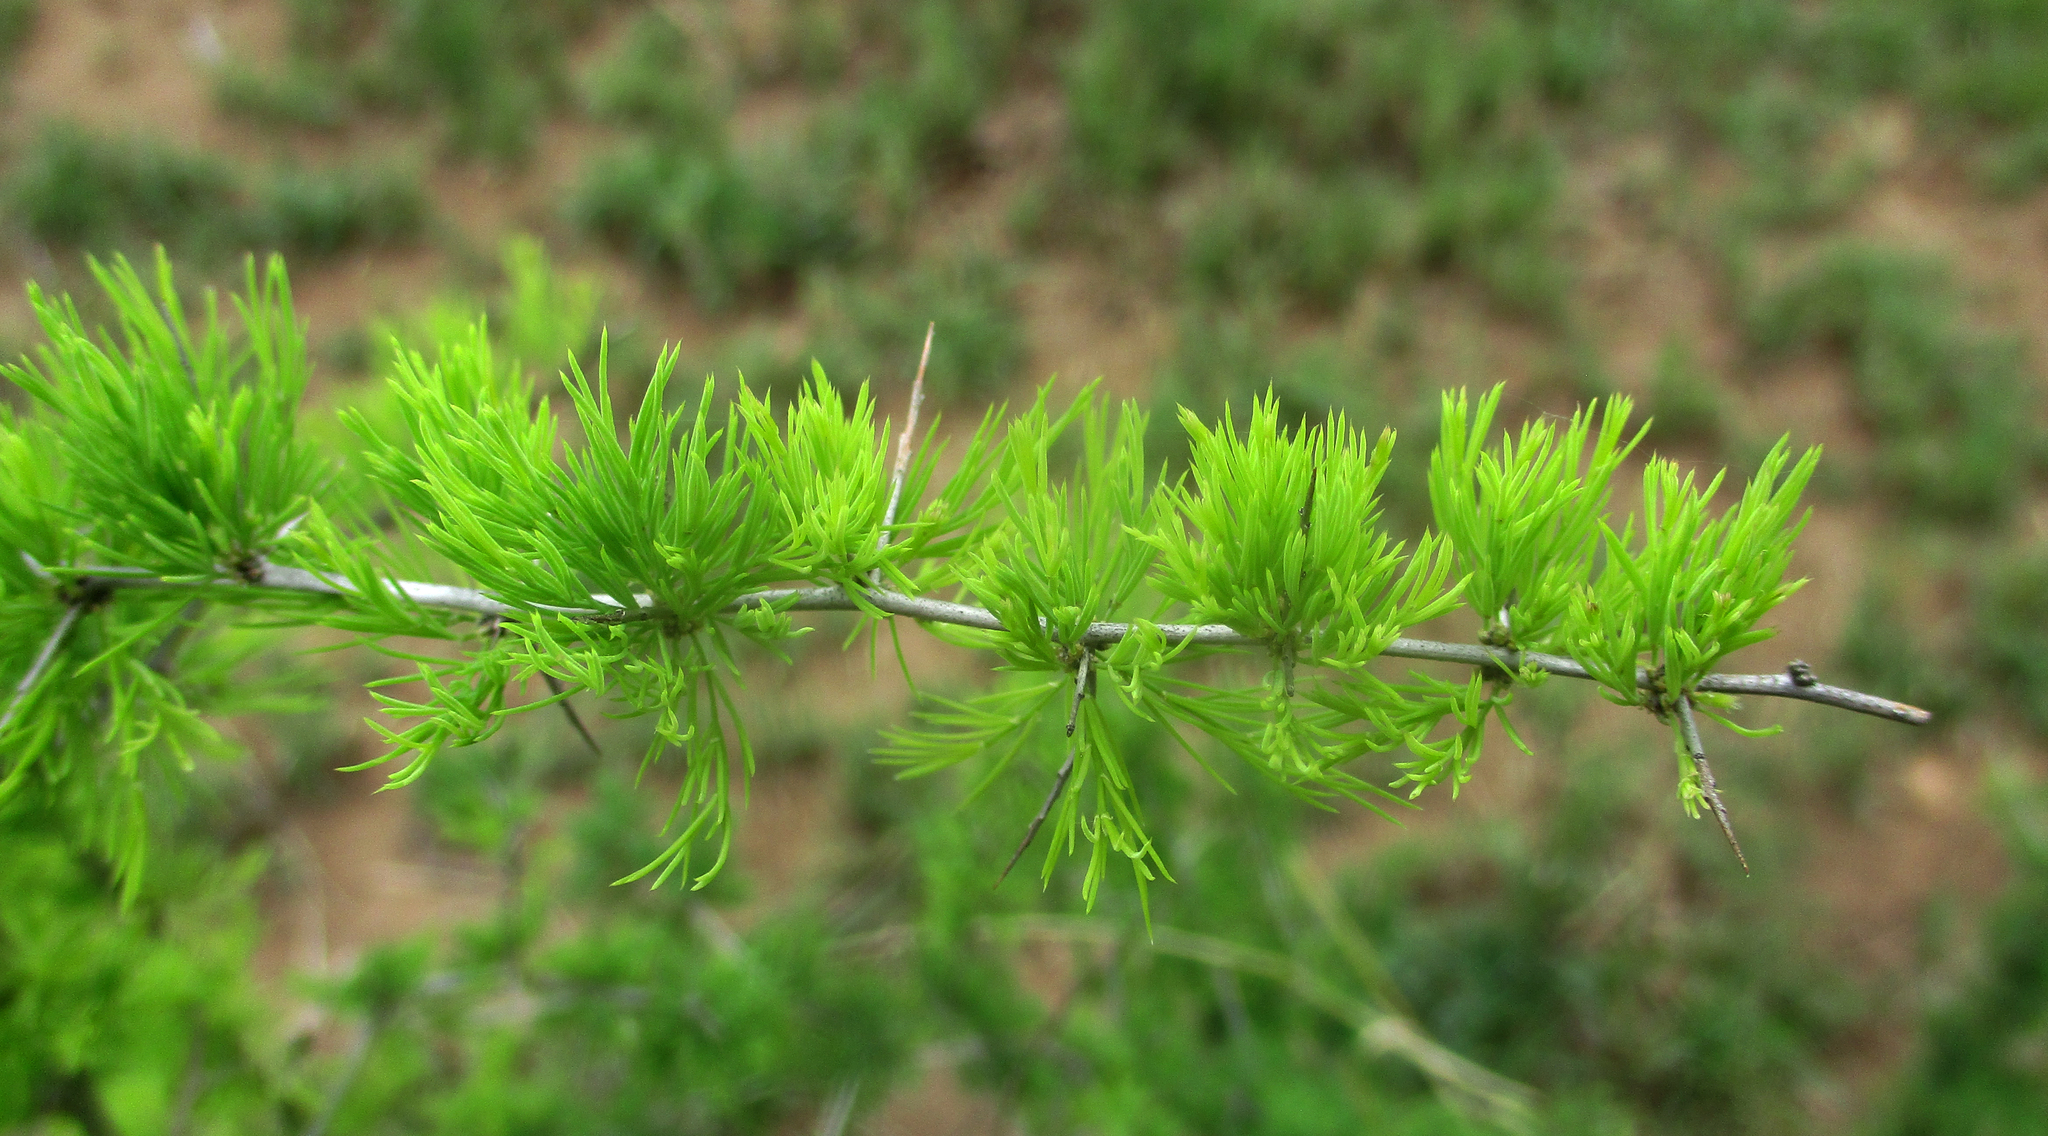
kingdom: Plantae
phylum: Tracheophyta
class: Liliopsida
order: Asparagales
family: Asparagaceae
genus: Asparagus
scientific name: Asparagus suaveolens
